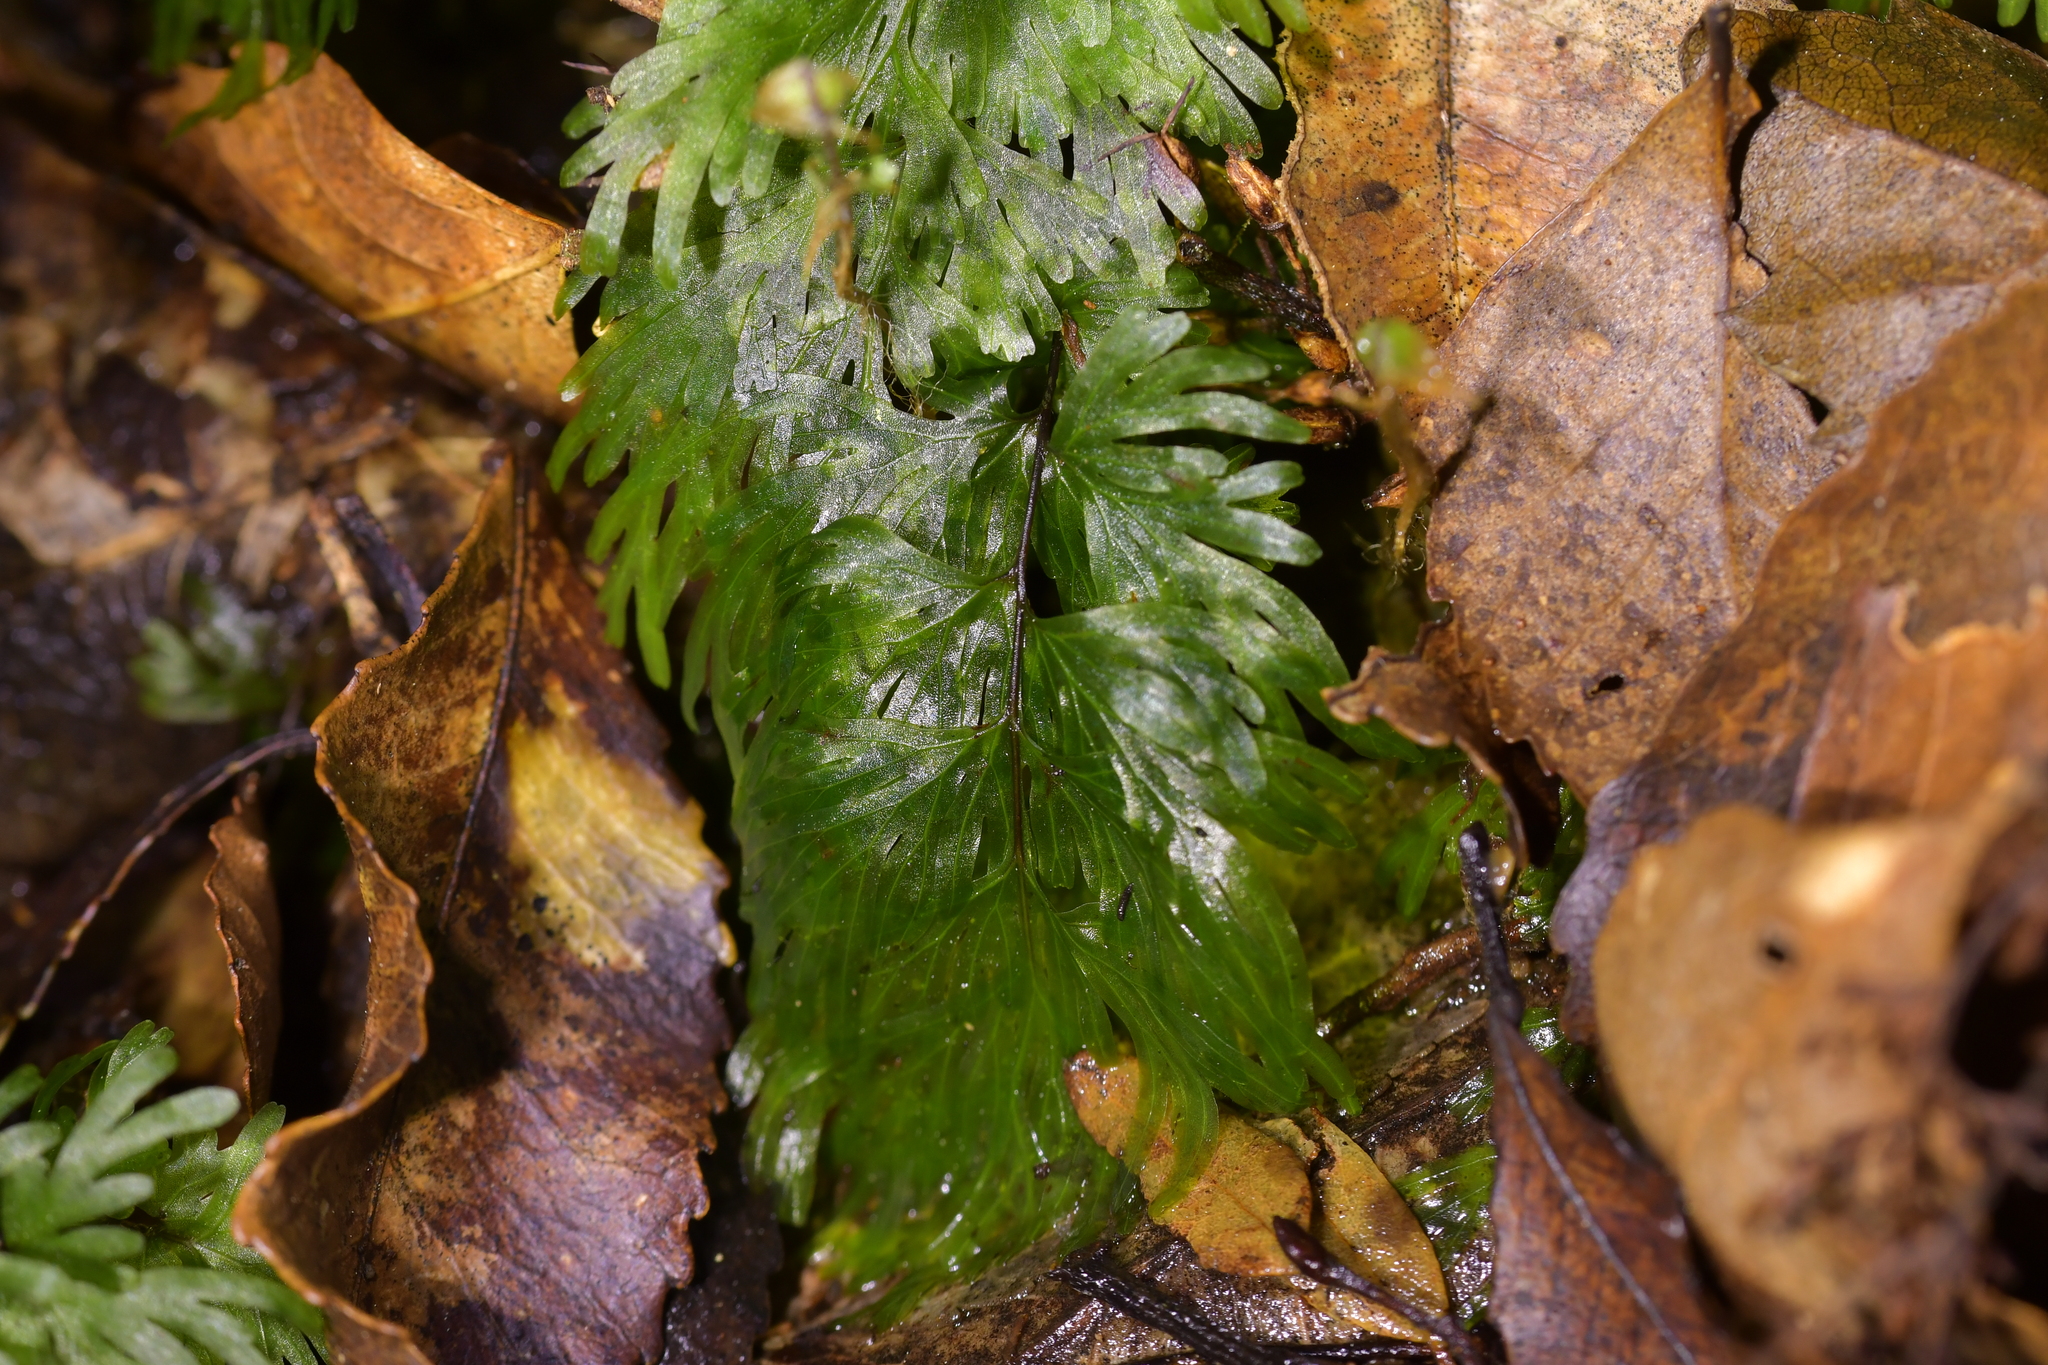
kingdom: Plantae
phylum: Tracheophyta
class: Polypodiopsida
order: Hymenophyllales
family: Hymenophyllaceae
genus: Hymenophyllum
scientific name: Hymenophyllum flabellatum
